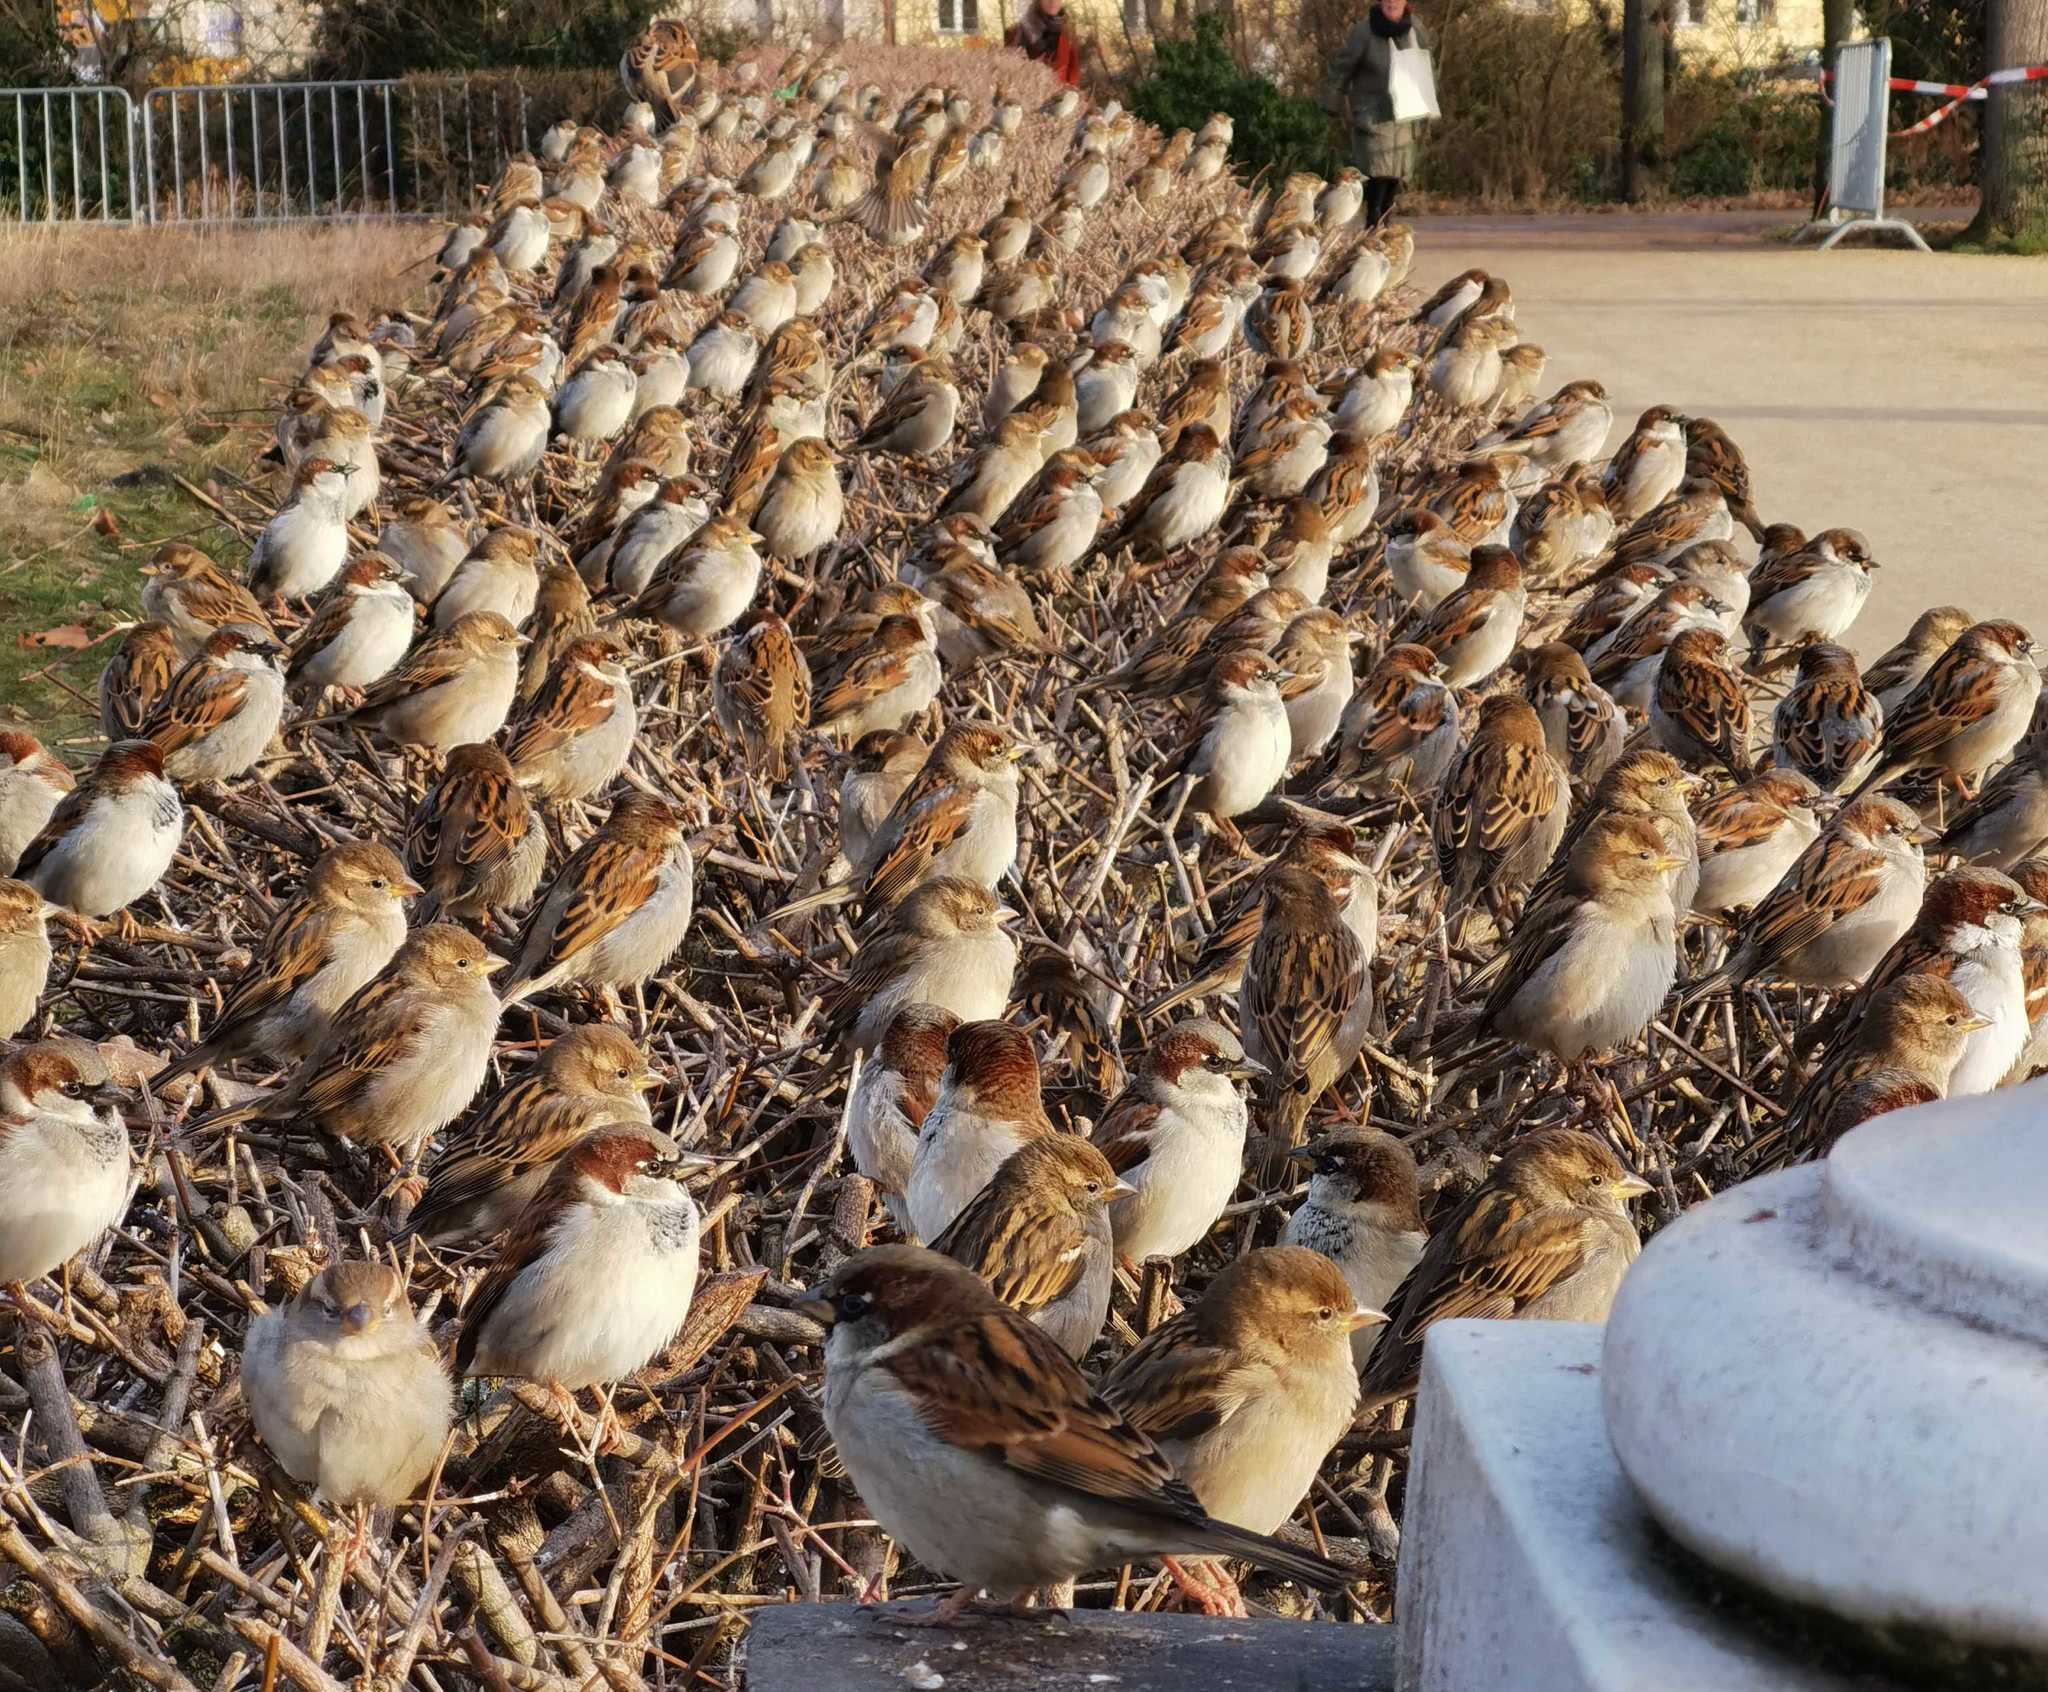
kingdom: Animalia
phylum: Chordata
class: Aves
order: Passeriformes
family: Passeridae
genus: Passer
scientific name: Passer domesticus
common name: House sparrow
